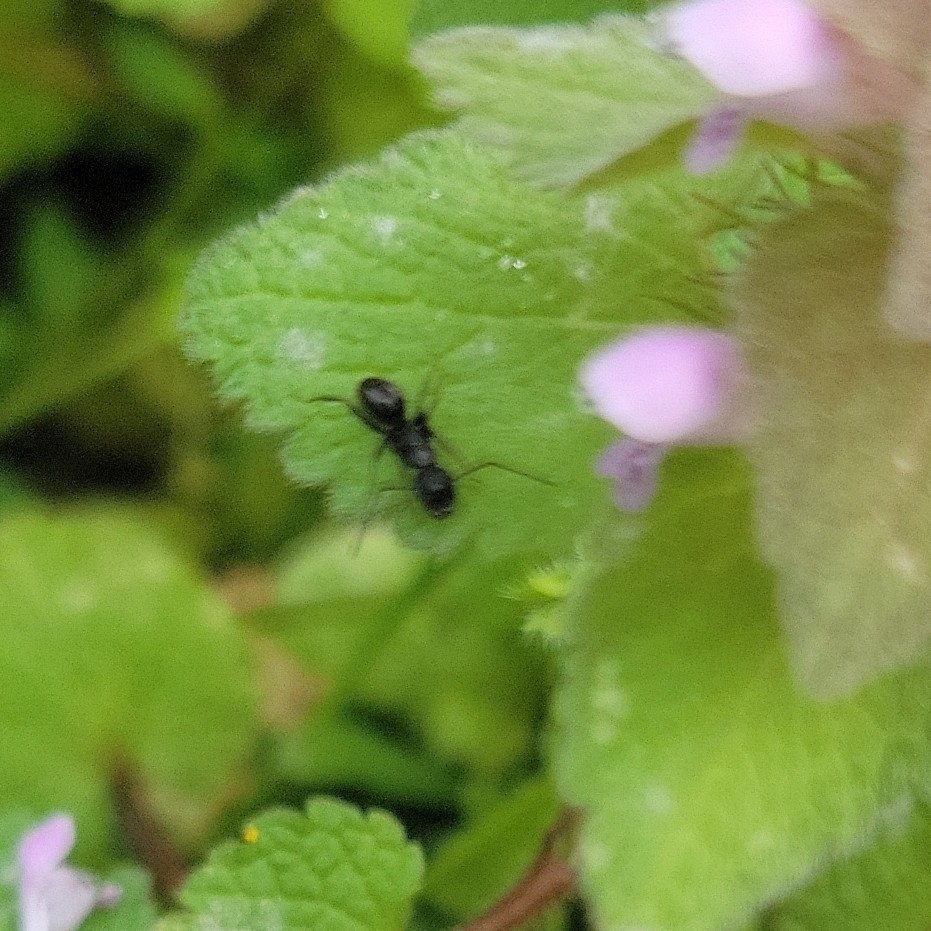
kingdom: Animalia
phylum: Arthropoda
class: Insecta
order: Hymenoptera
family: Formicidae
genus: Camponotus
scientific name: Camponotus pennsylvanicus
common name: Black carpenter ant
